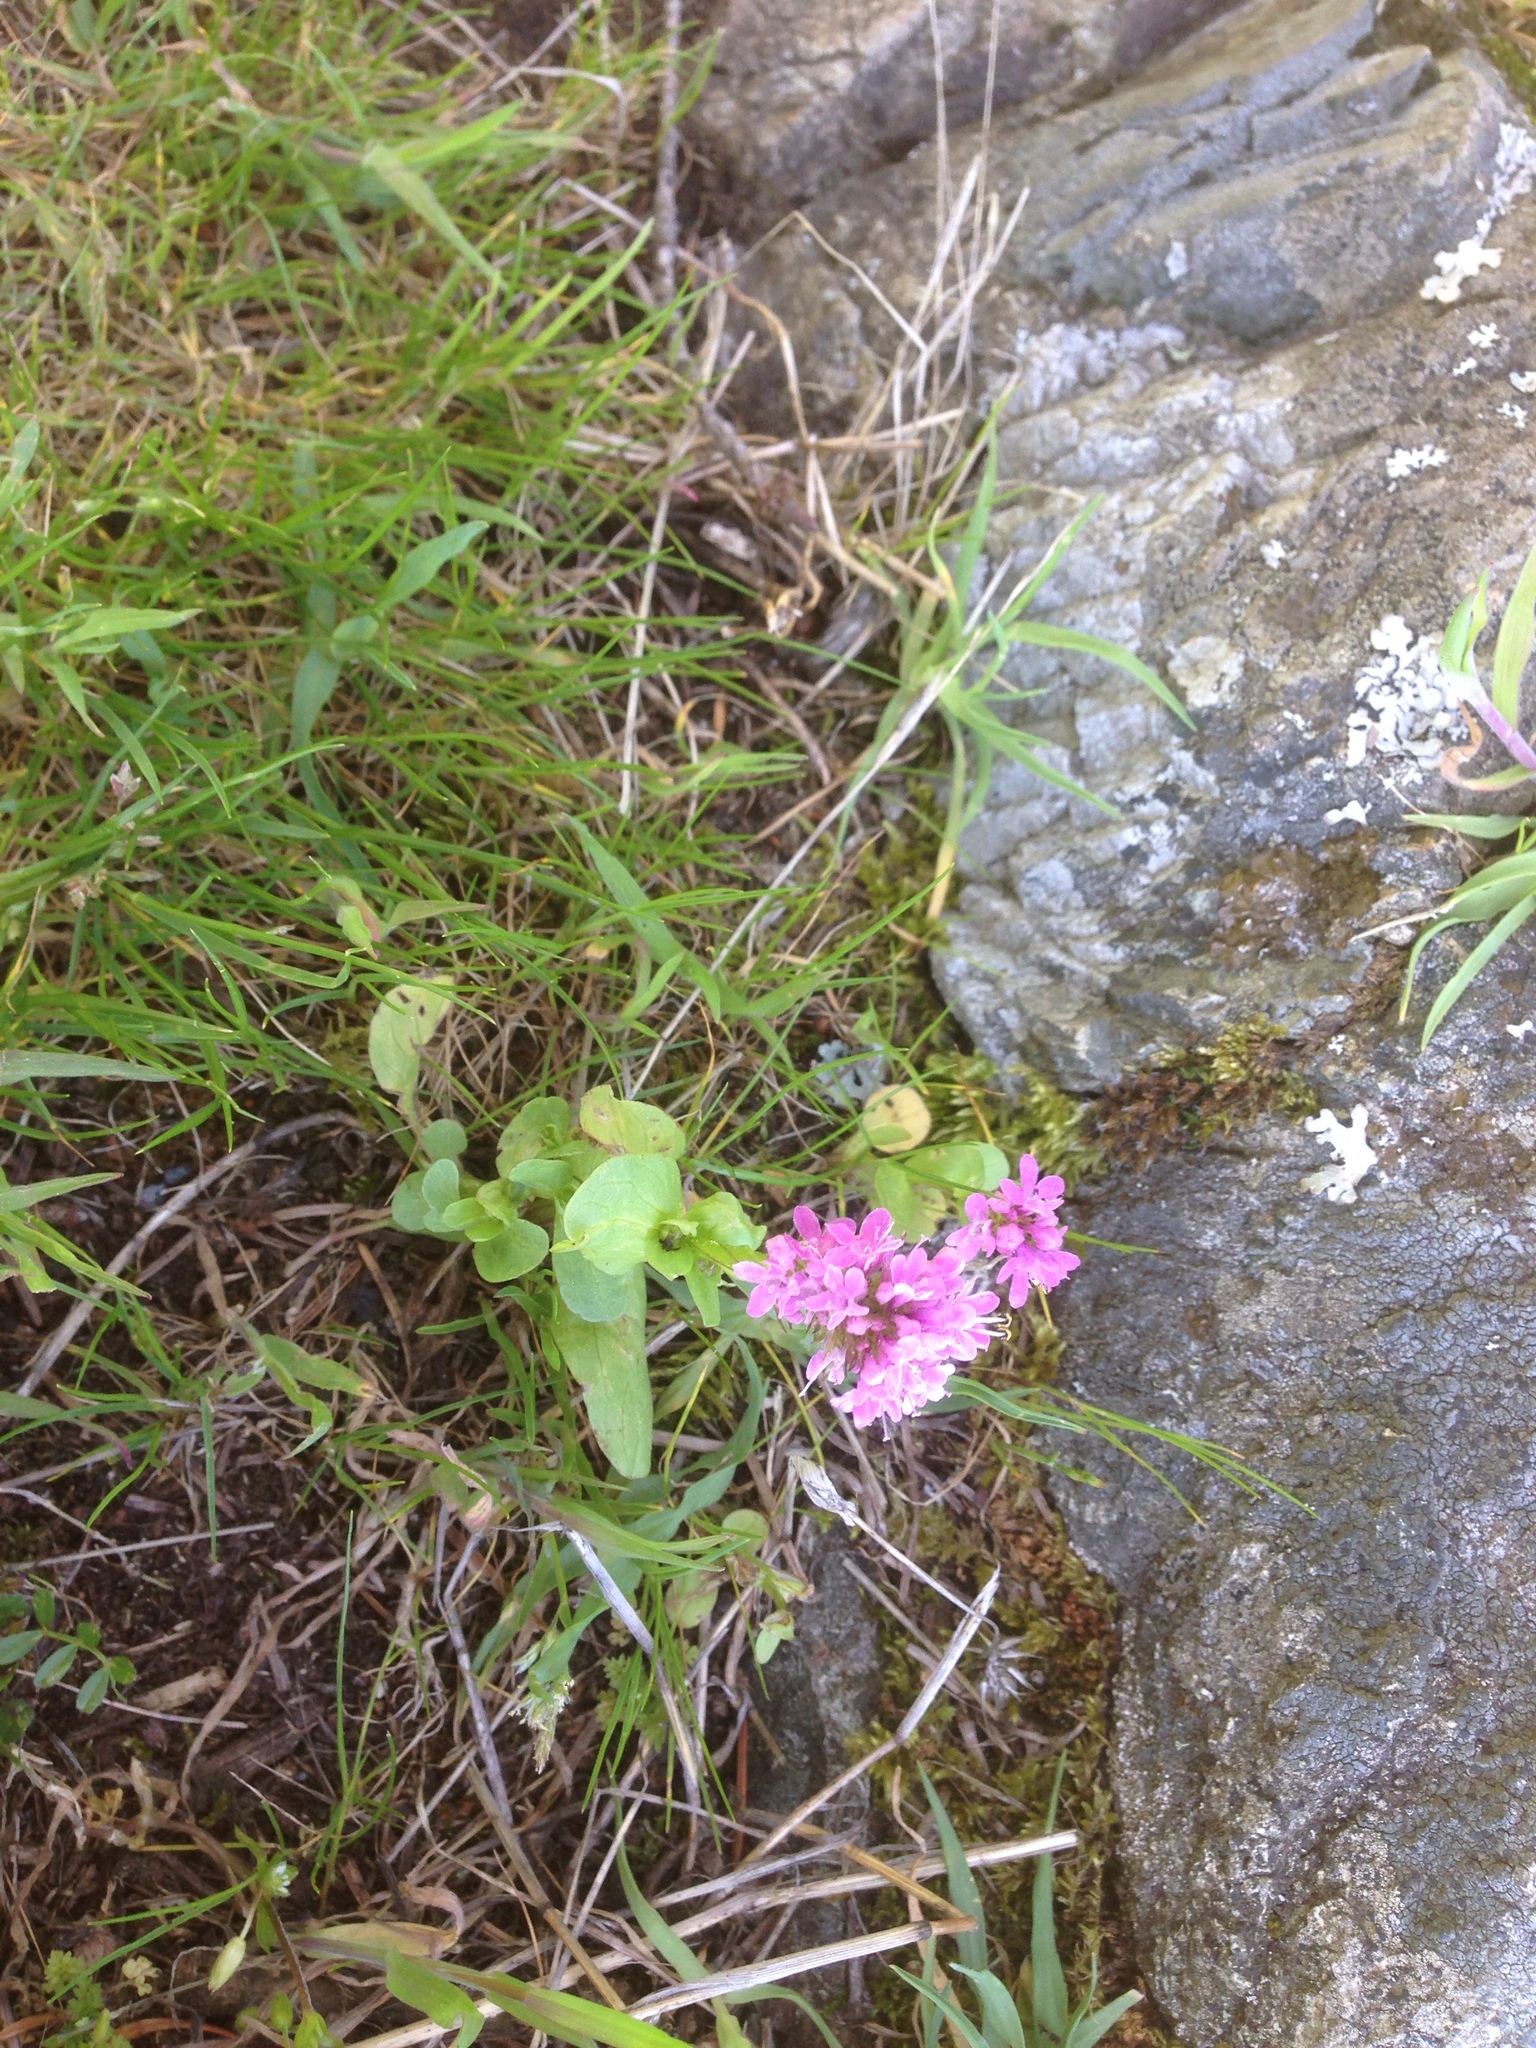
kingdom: Plantae
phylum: Tracheophyta
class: Magnoliopsida
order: Dipsacales
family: Caprifoliaceae
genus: Plectritis
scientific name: Plectritis congesta
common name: Pink plectritis
